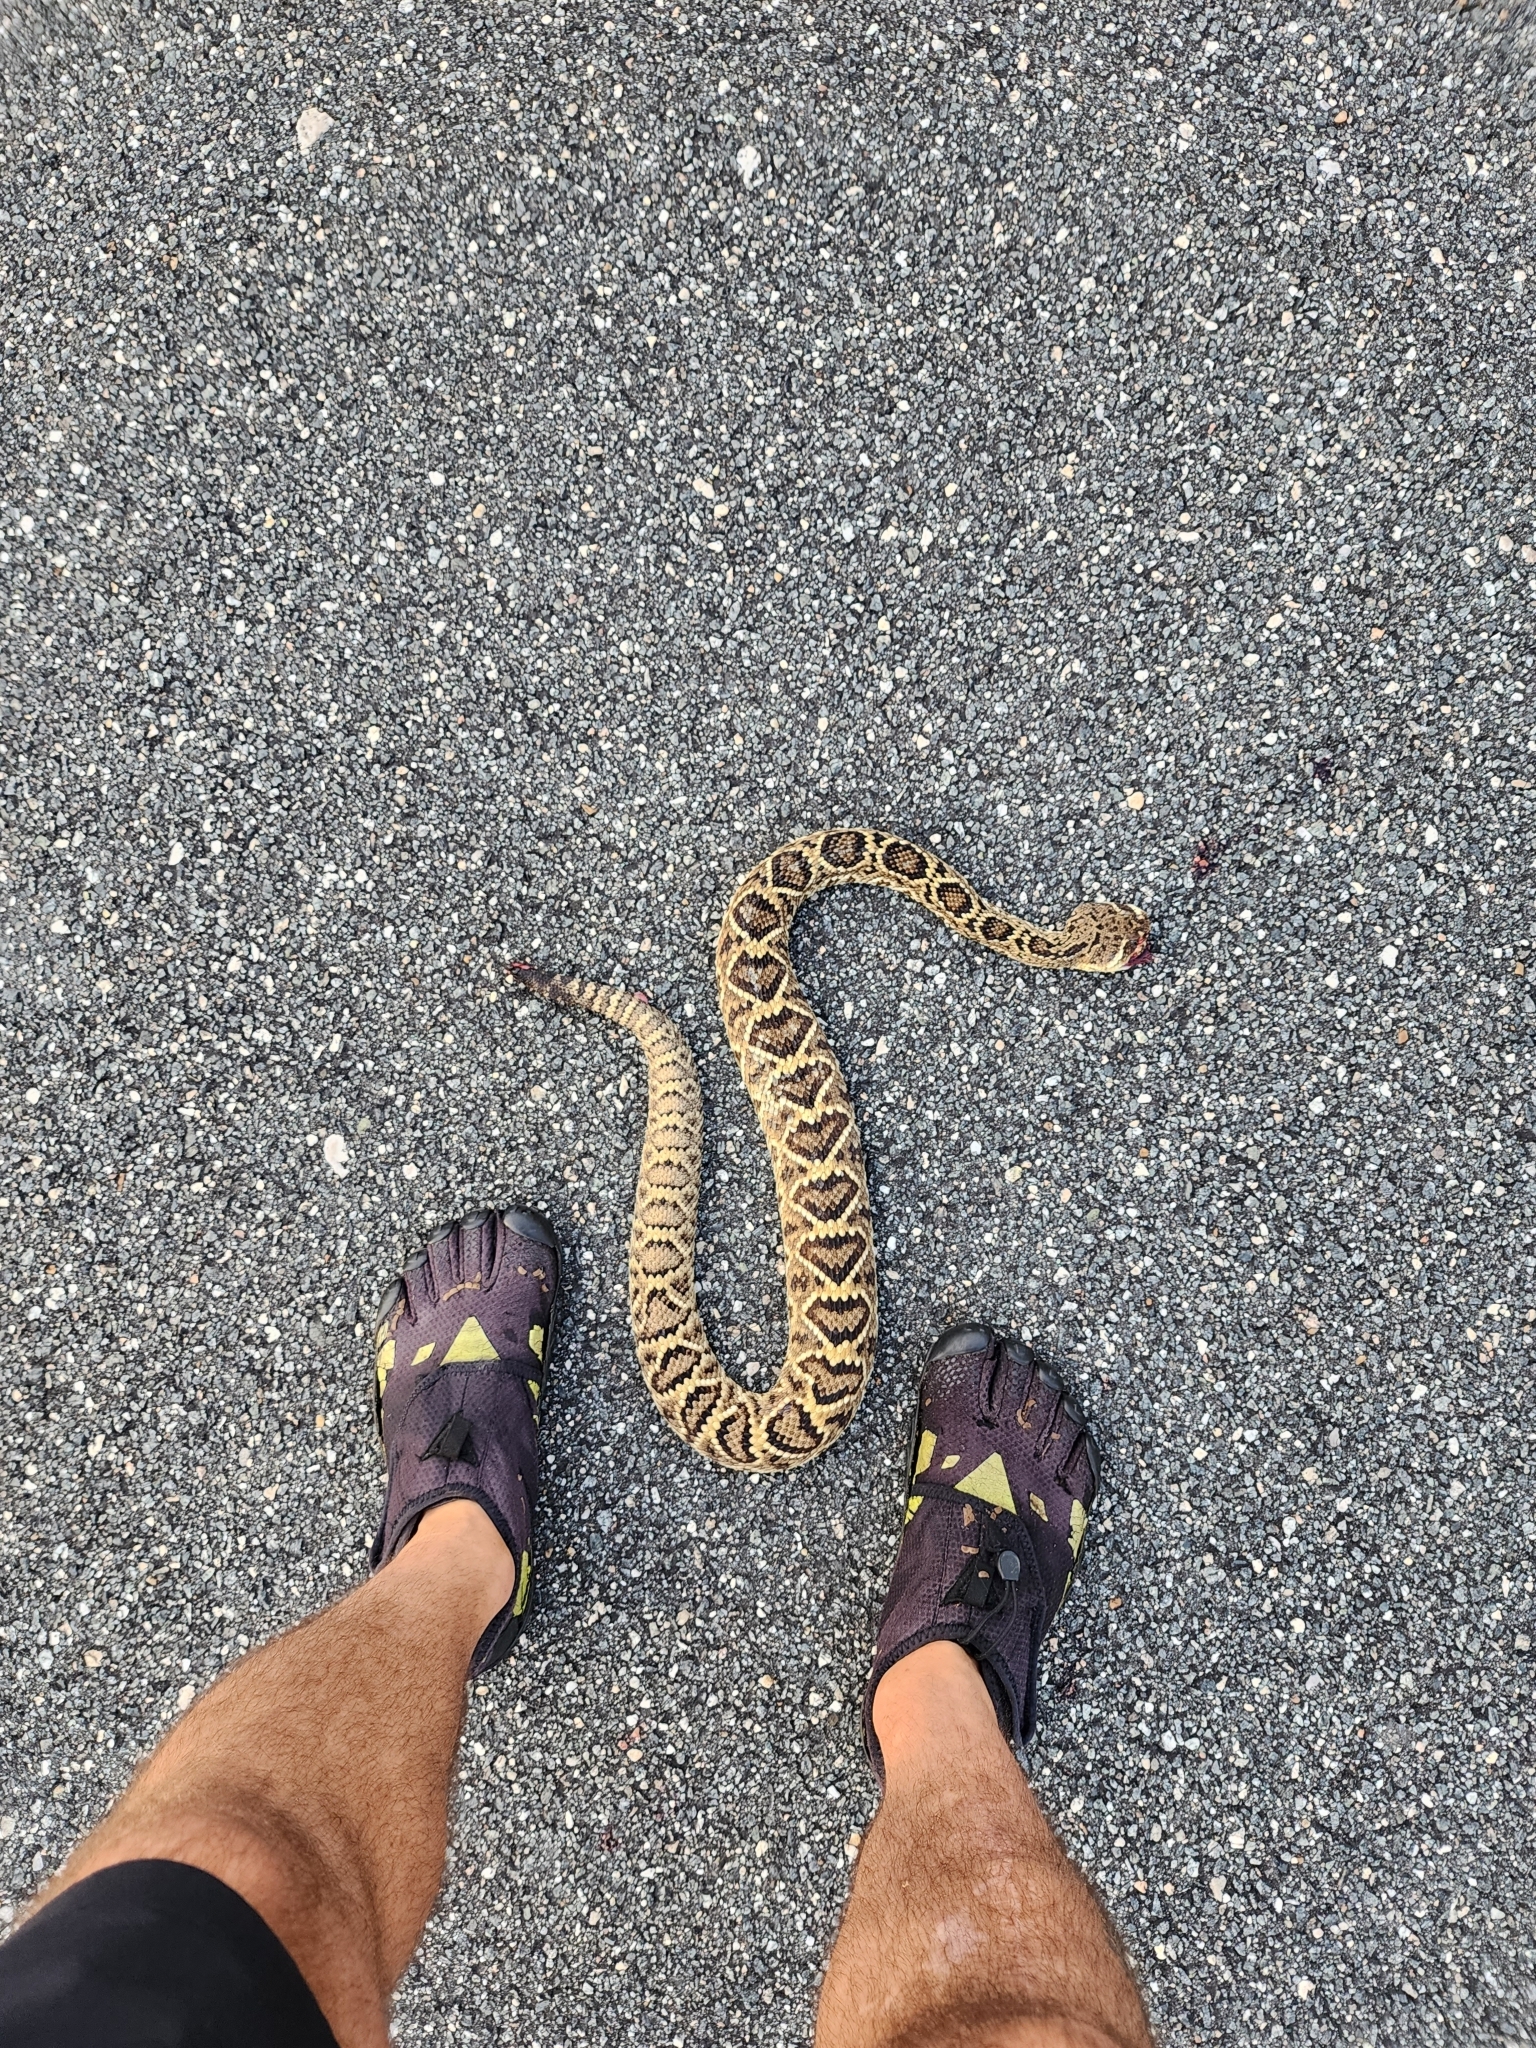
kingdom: Animalia
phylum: Chordata
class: Squamata
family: Viperidae
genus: Crotalus
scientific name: Crotalus adamanteus
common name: Eastern diamondback rattlesnake
